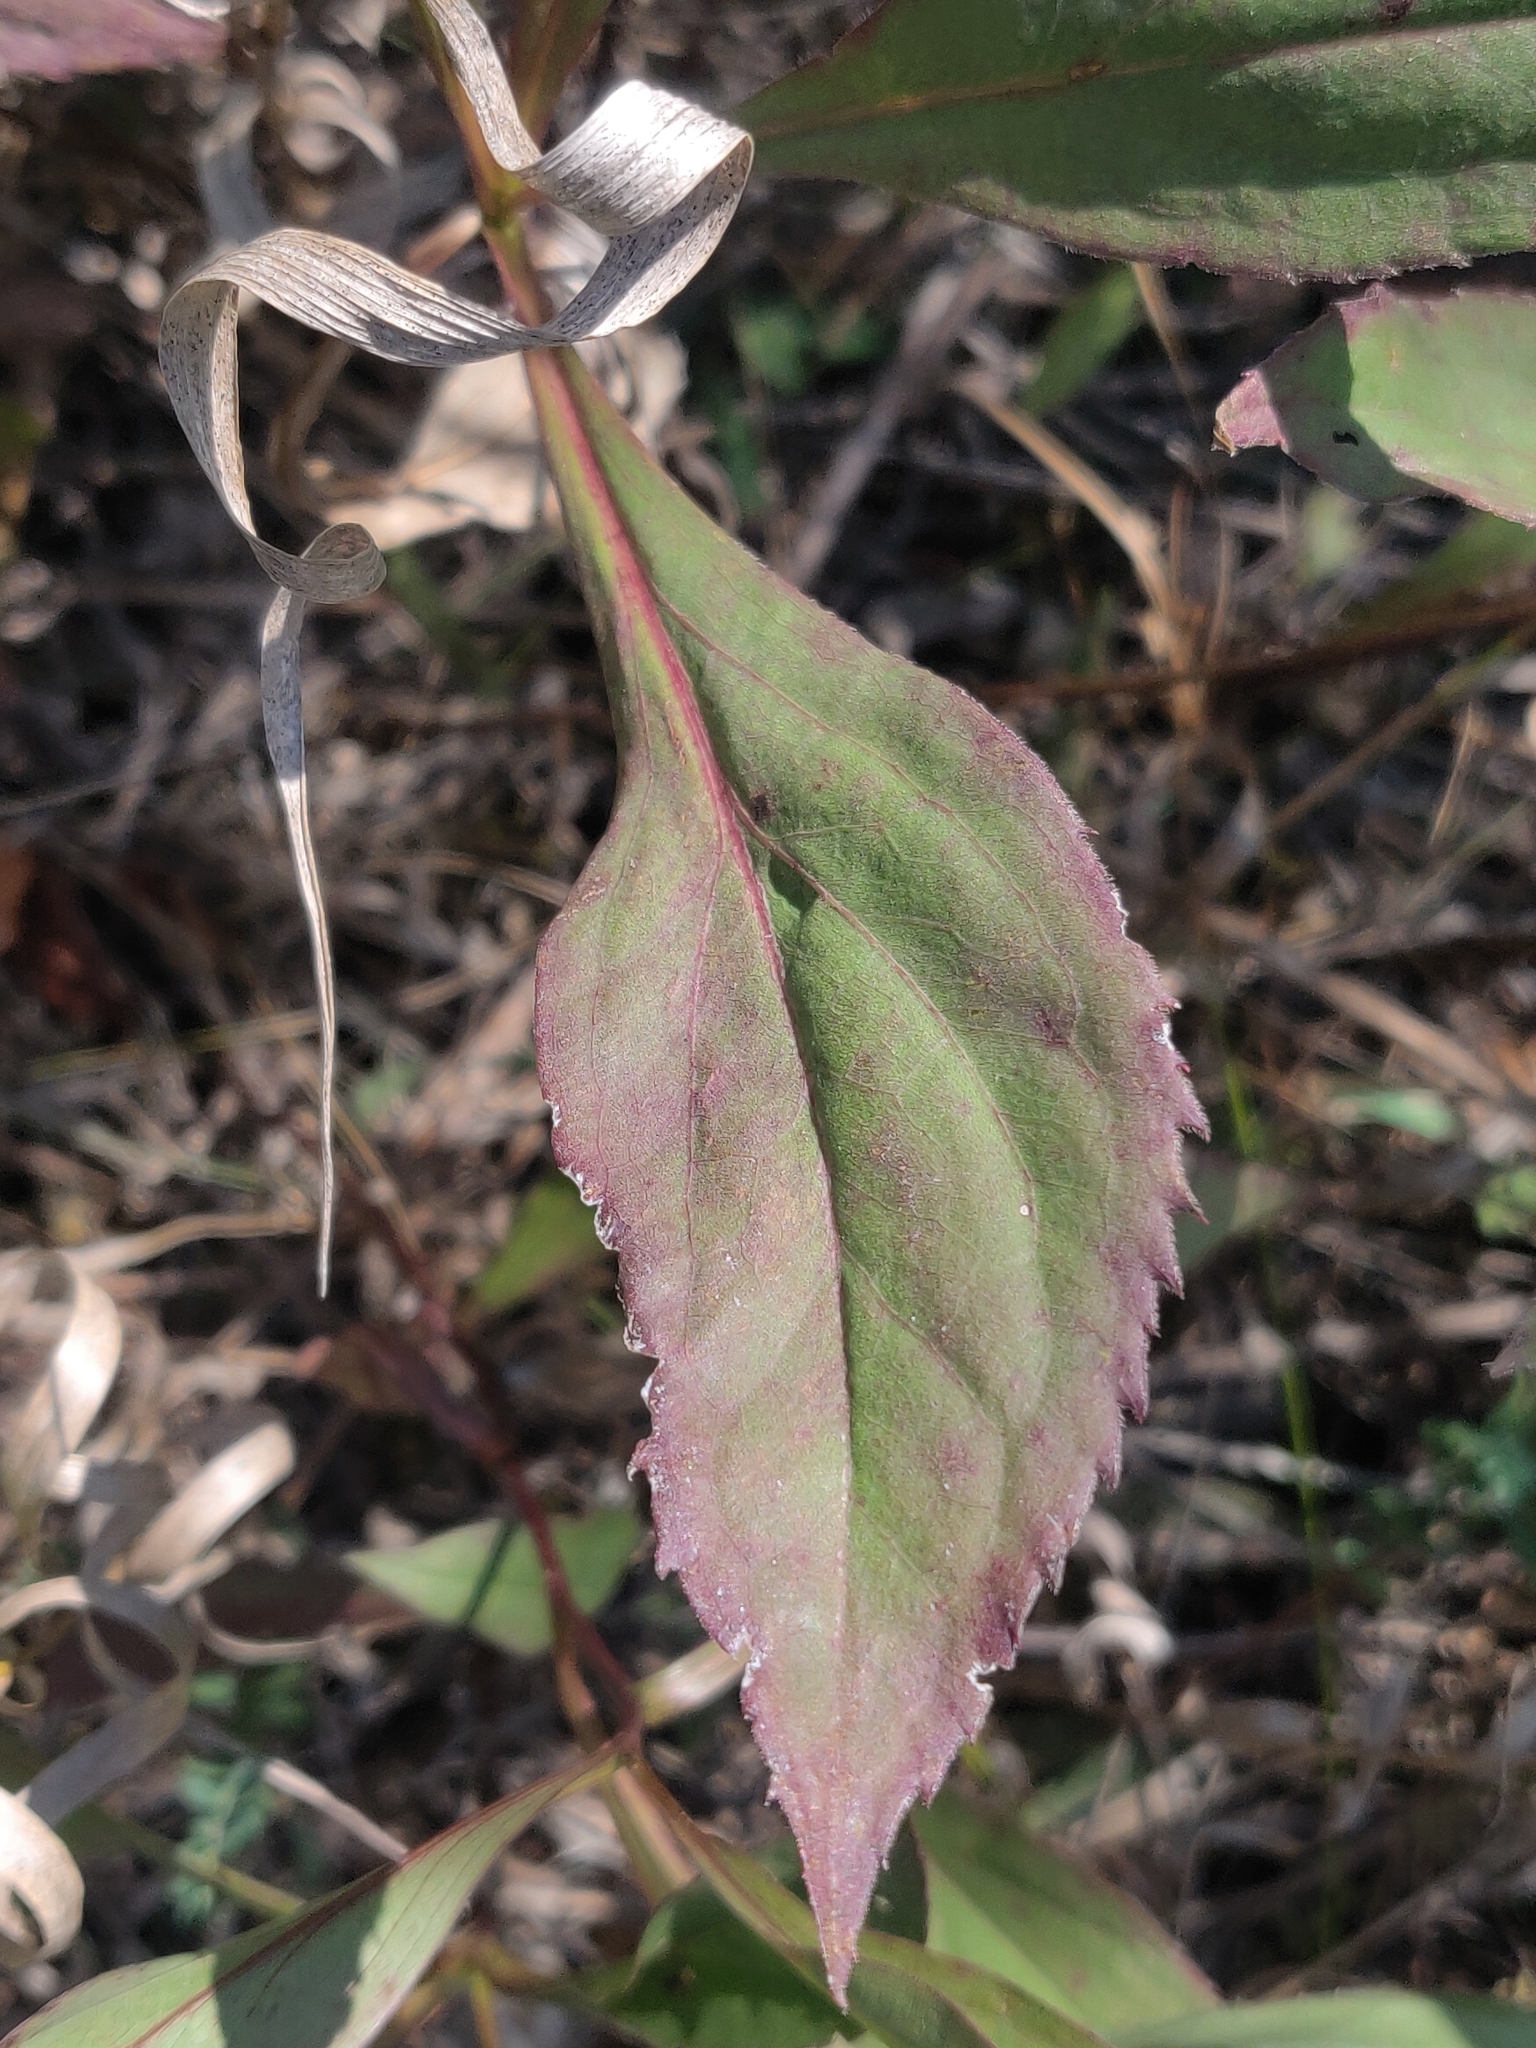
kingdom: Plantae
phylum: Tracheophyta
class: Magnoliopsida
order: Asterales
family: Asteraceae
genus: Solidago
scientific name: Solidago patula
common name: Rough-leaf goldenrod
